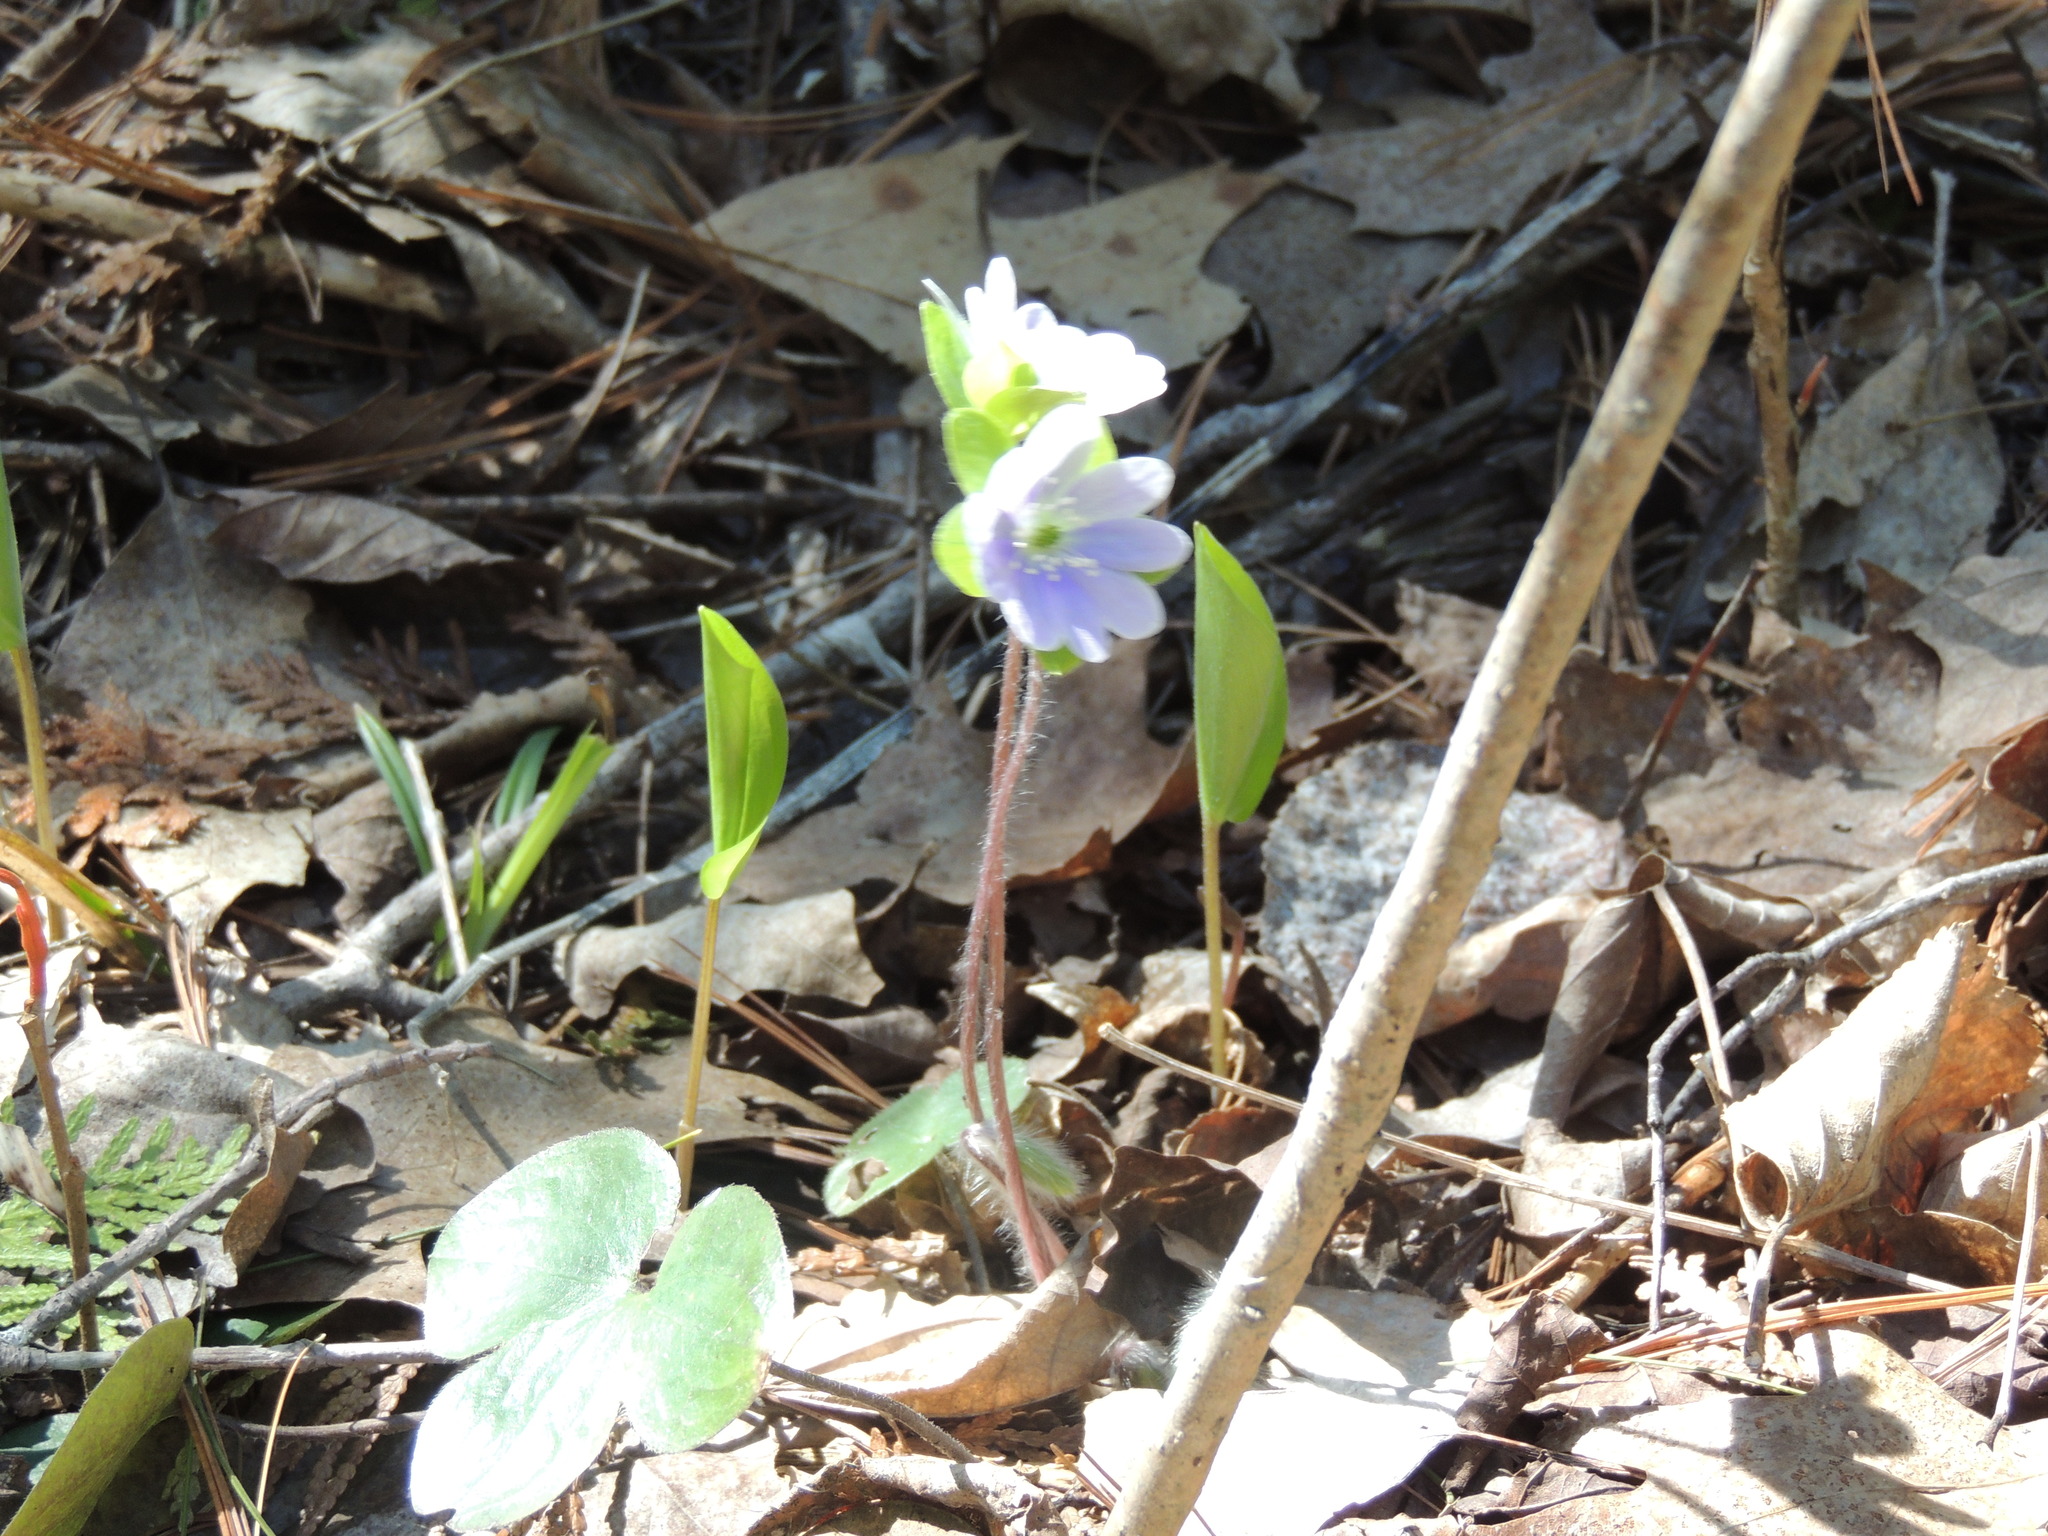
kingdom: Plantae
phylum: Tracheophyta
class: Magnoliopsida
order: Ranunculales
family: Ranunculaceae
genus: Hepatica
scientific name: Hepatica americana
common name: American hepatica
